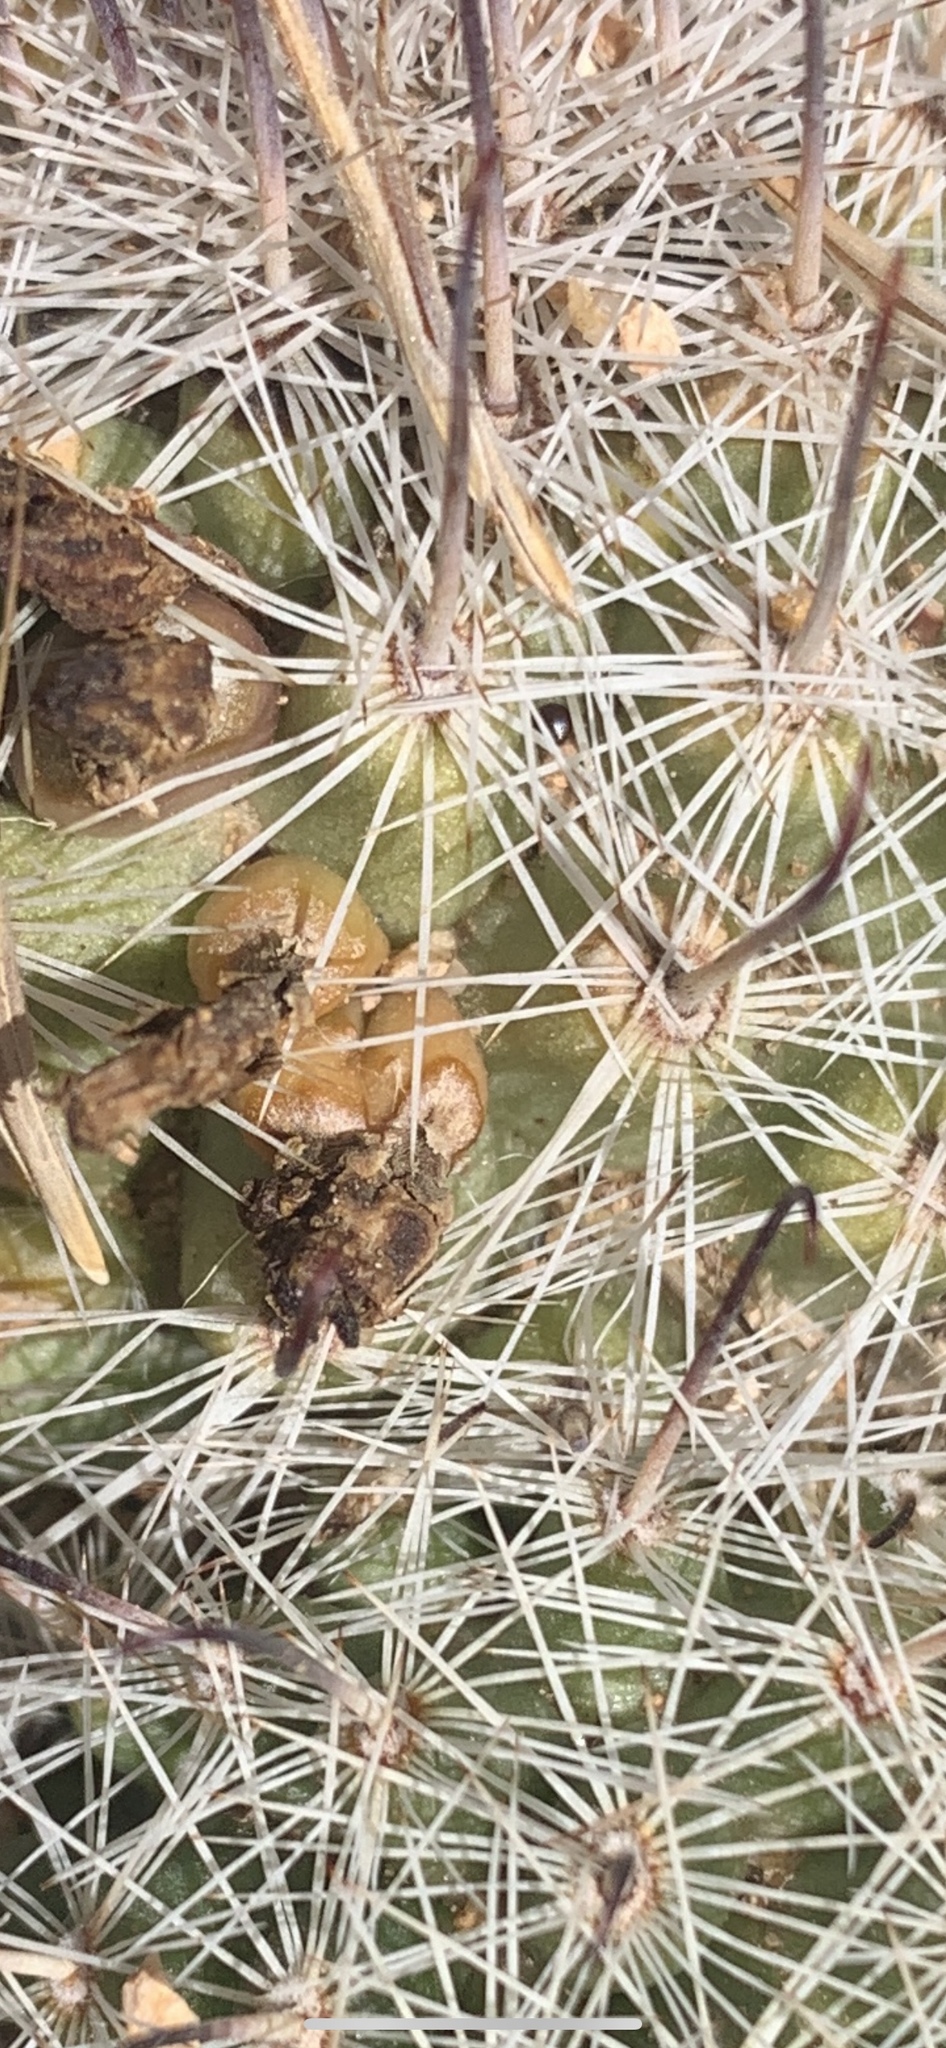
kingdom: Plantae
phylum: Tracheophyta
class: Magnoliopsida
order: Caryophyllales
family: Cactaceae
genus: Cochemiea
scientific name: Cochemiea grahamii
